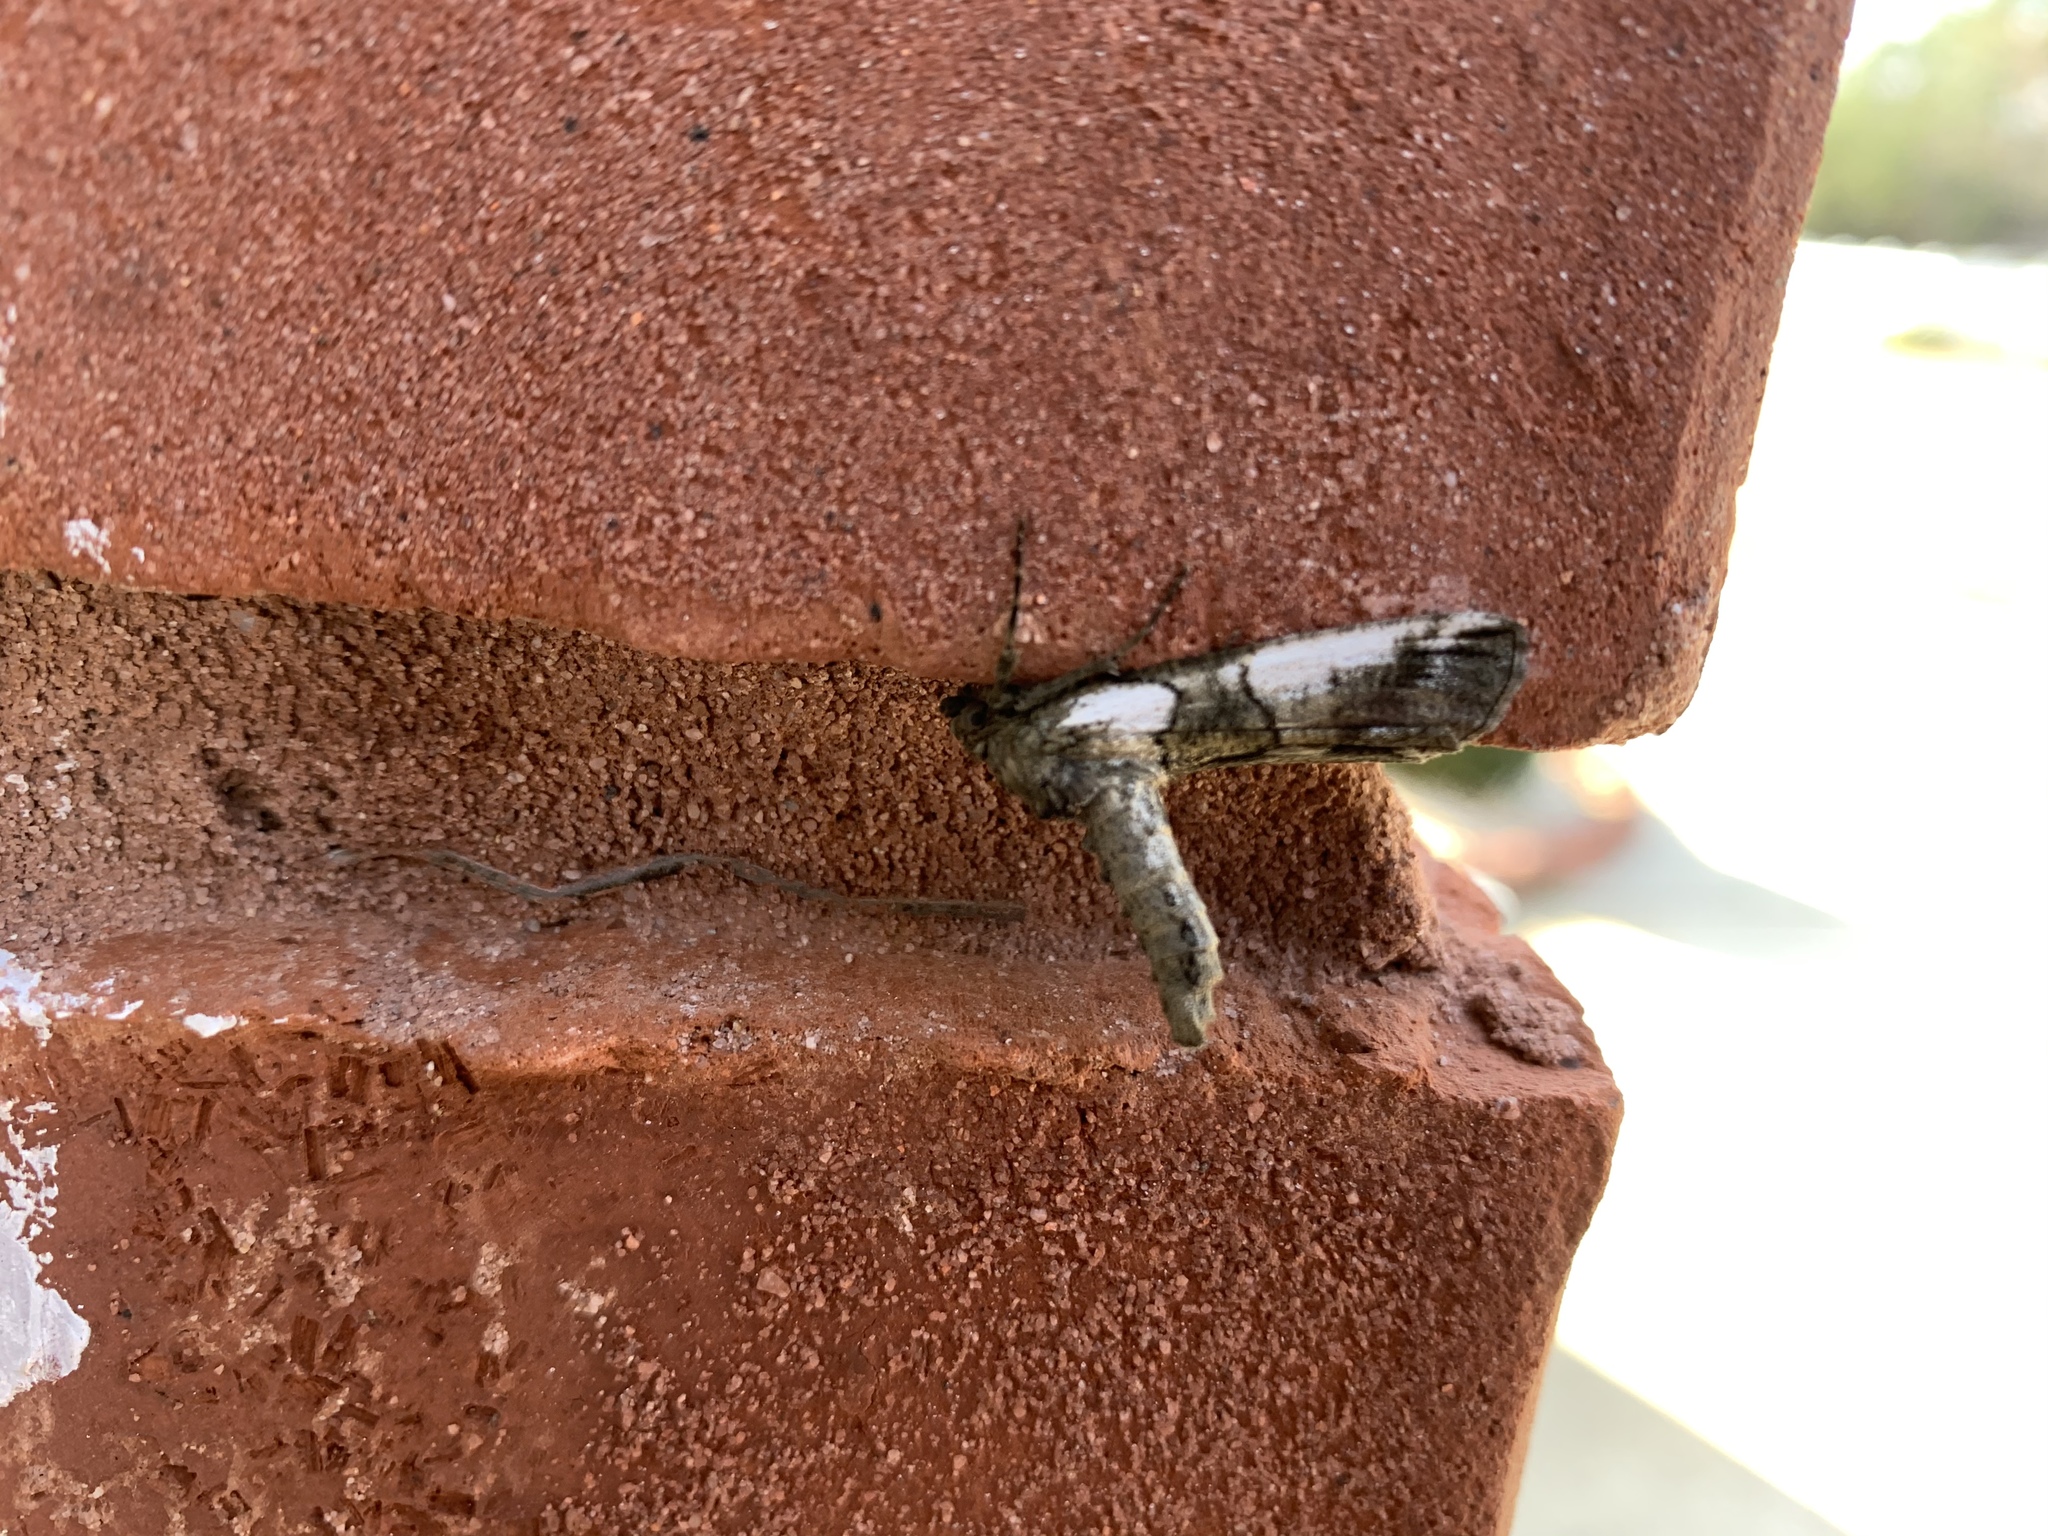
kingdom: Animalia
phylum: Arthropoda
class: Insecta
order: Lepidoptera
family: Geometridae
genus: Ceratonyx
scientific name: Ceratonyx satanaria
